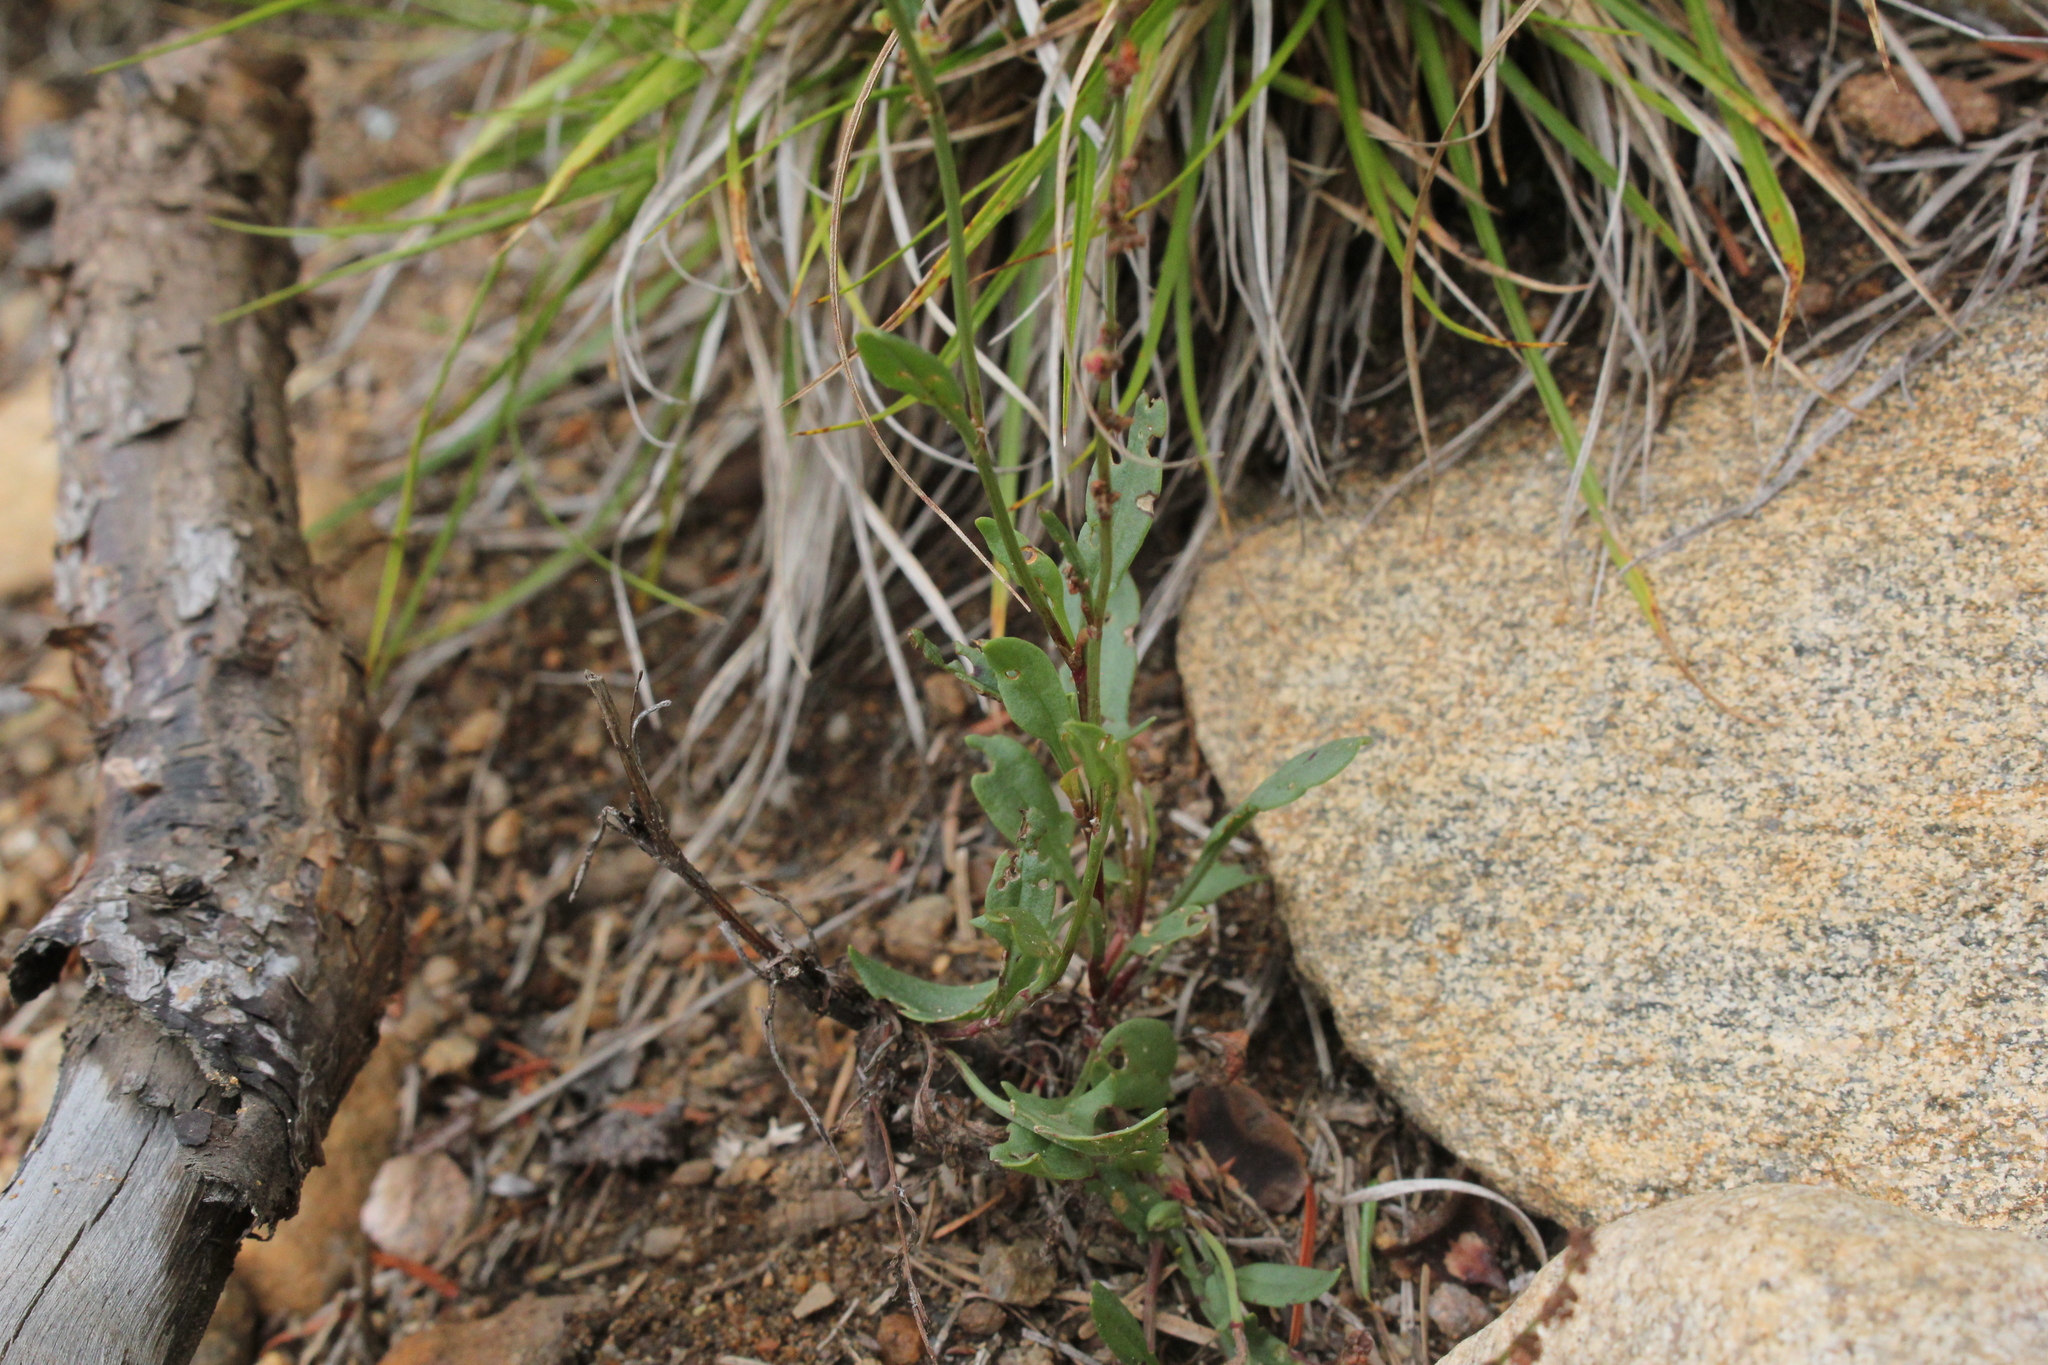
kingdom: Plantae
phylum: Tracheophyta
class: Magnoliopsida
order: Caryophyllales
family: Polygonaceae
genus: Rumex
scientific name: Rumex acetosella
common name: Common sheep sorrel
